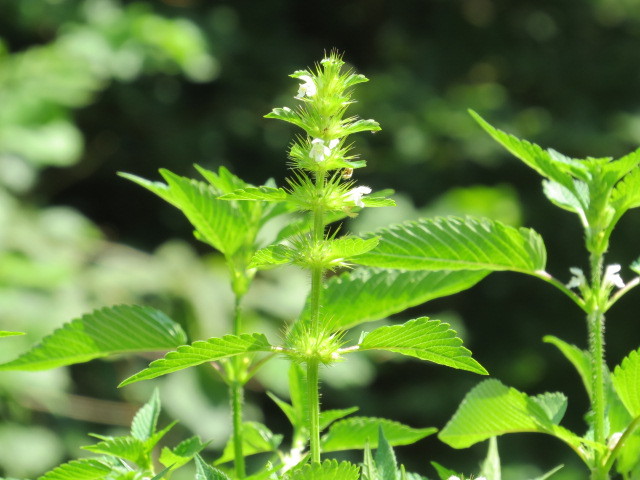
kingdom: Plantae
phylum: Tracheophyta
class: Magnoliopsida
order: Lamiales
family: Lamiaceae
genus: Galeopsis
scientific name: Galeopsis tetrahit
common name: Common hemp-nettle
